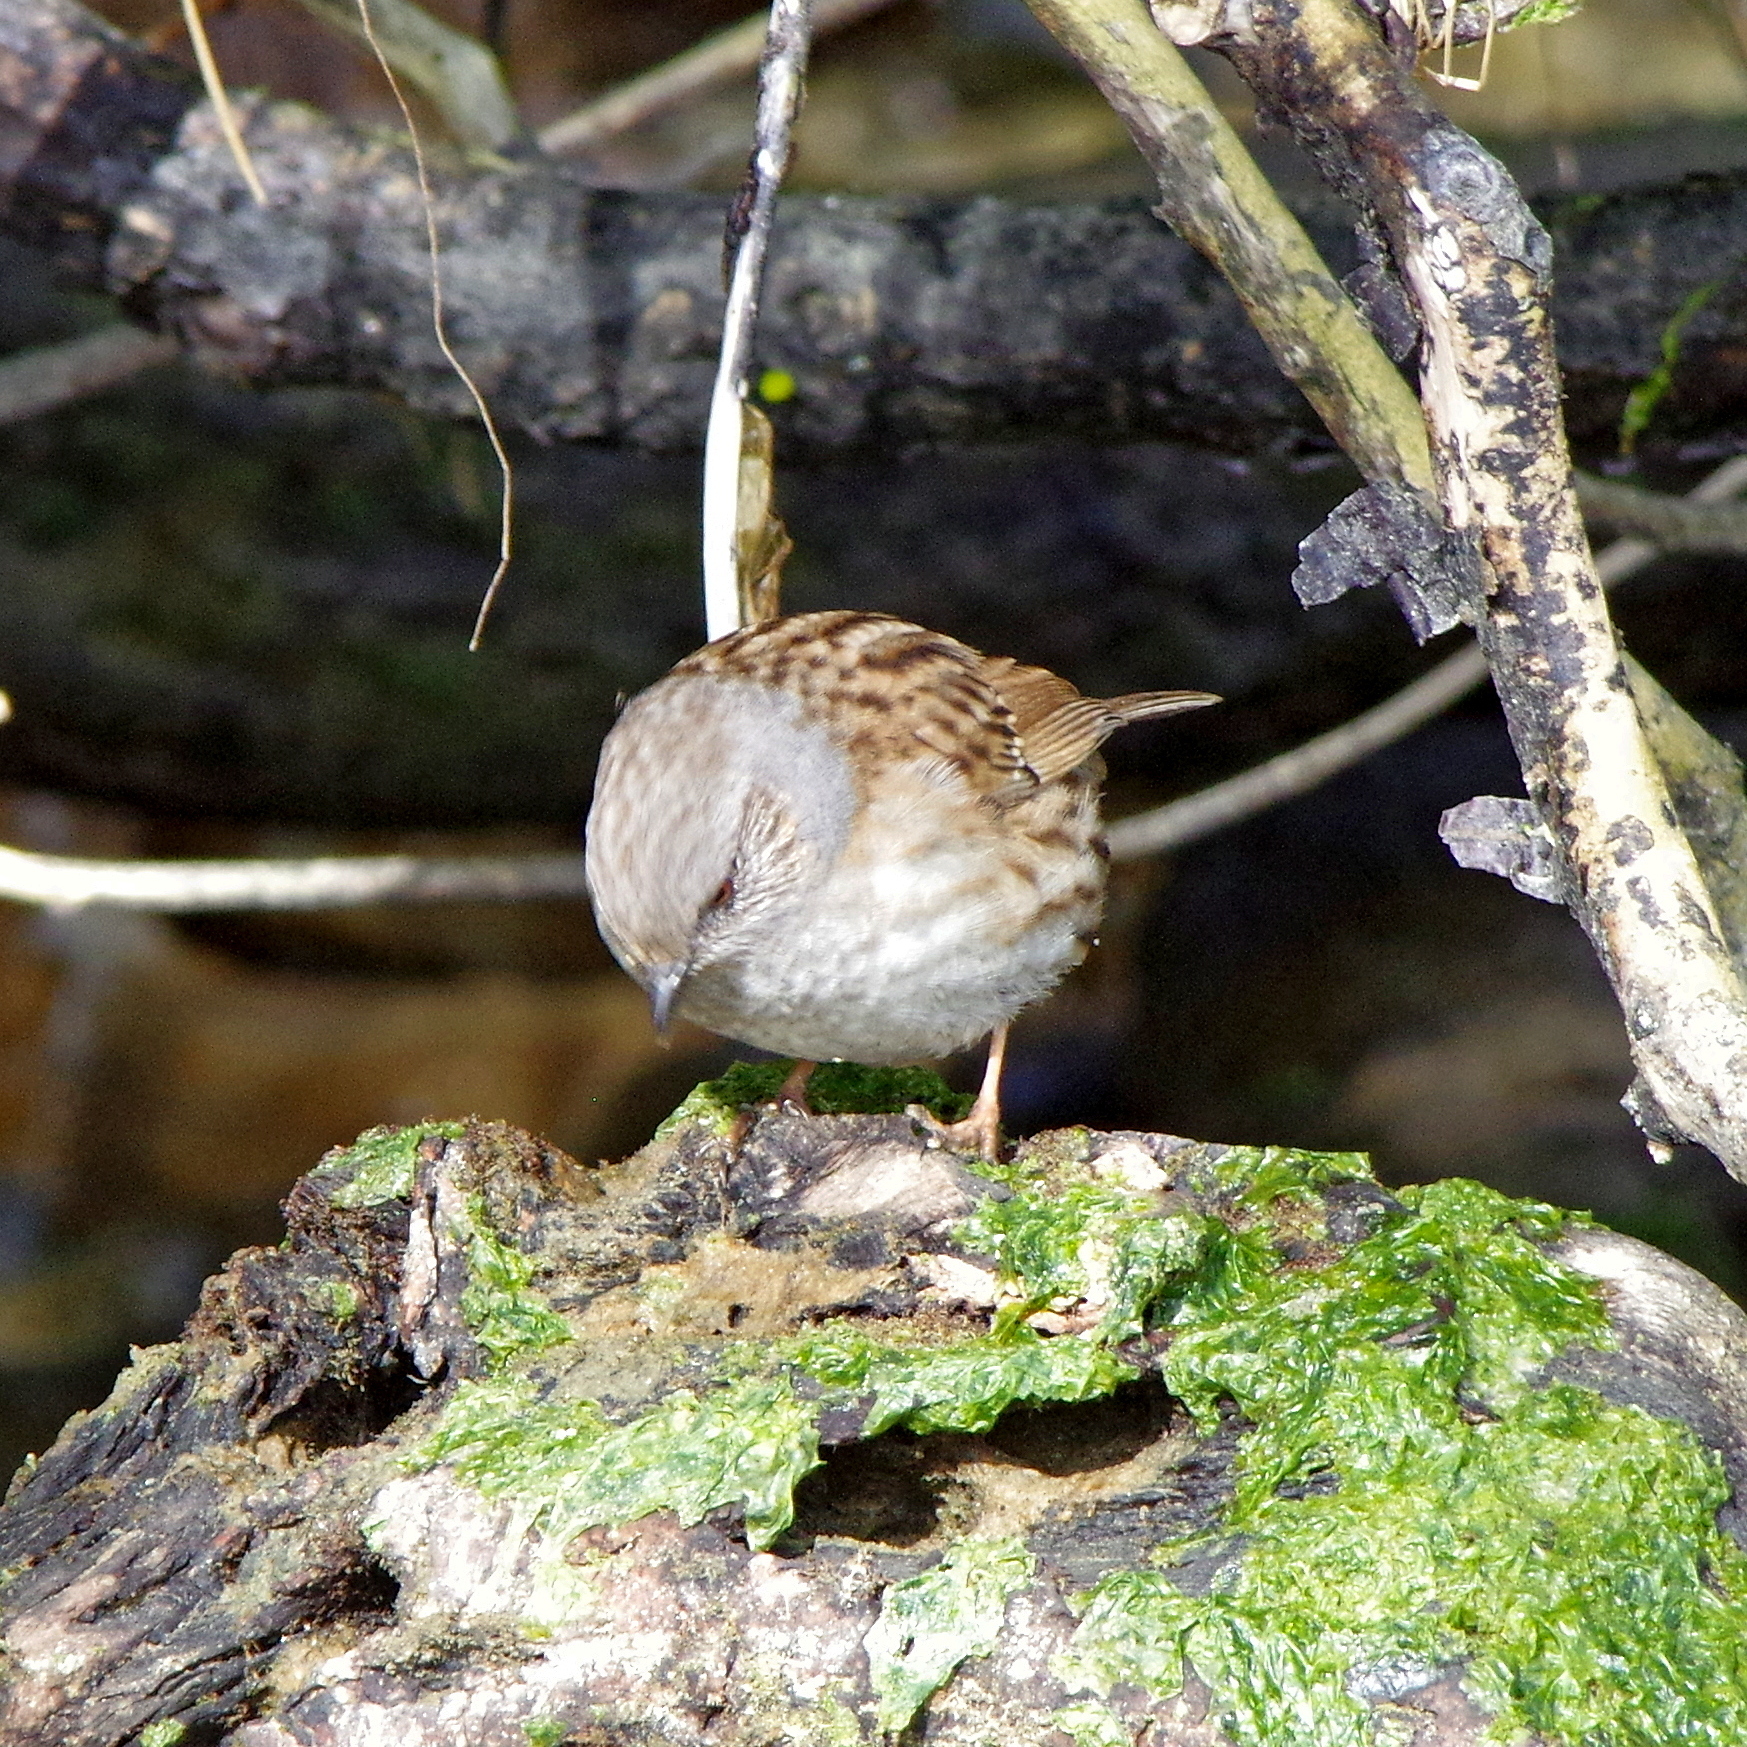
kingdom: Animalia
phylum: Chordata
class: Aves
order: Passeriformes
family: Prunellidae
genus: Prunella
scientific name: Prunella modularis
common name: Dunnock
